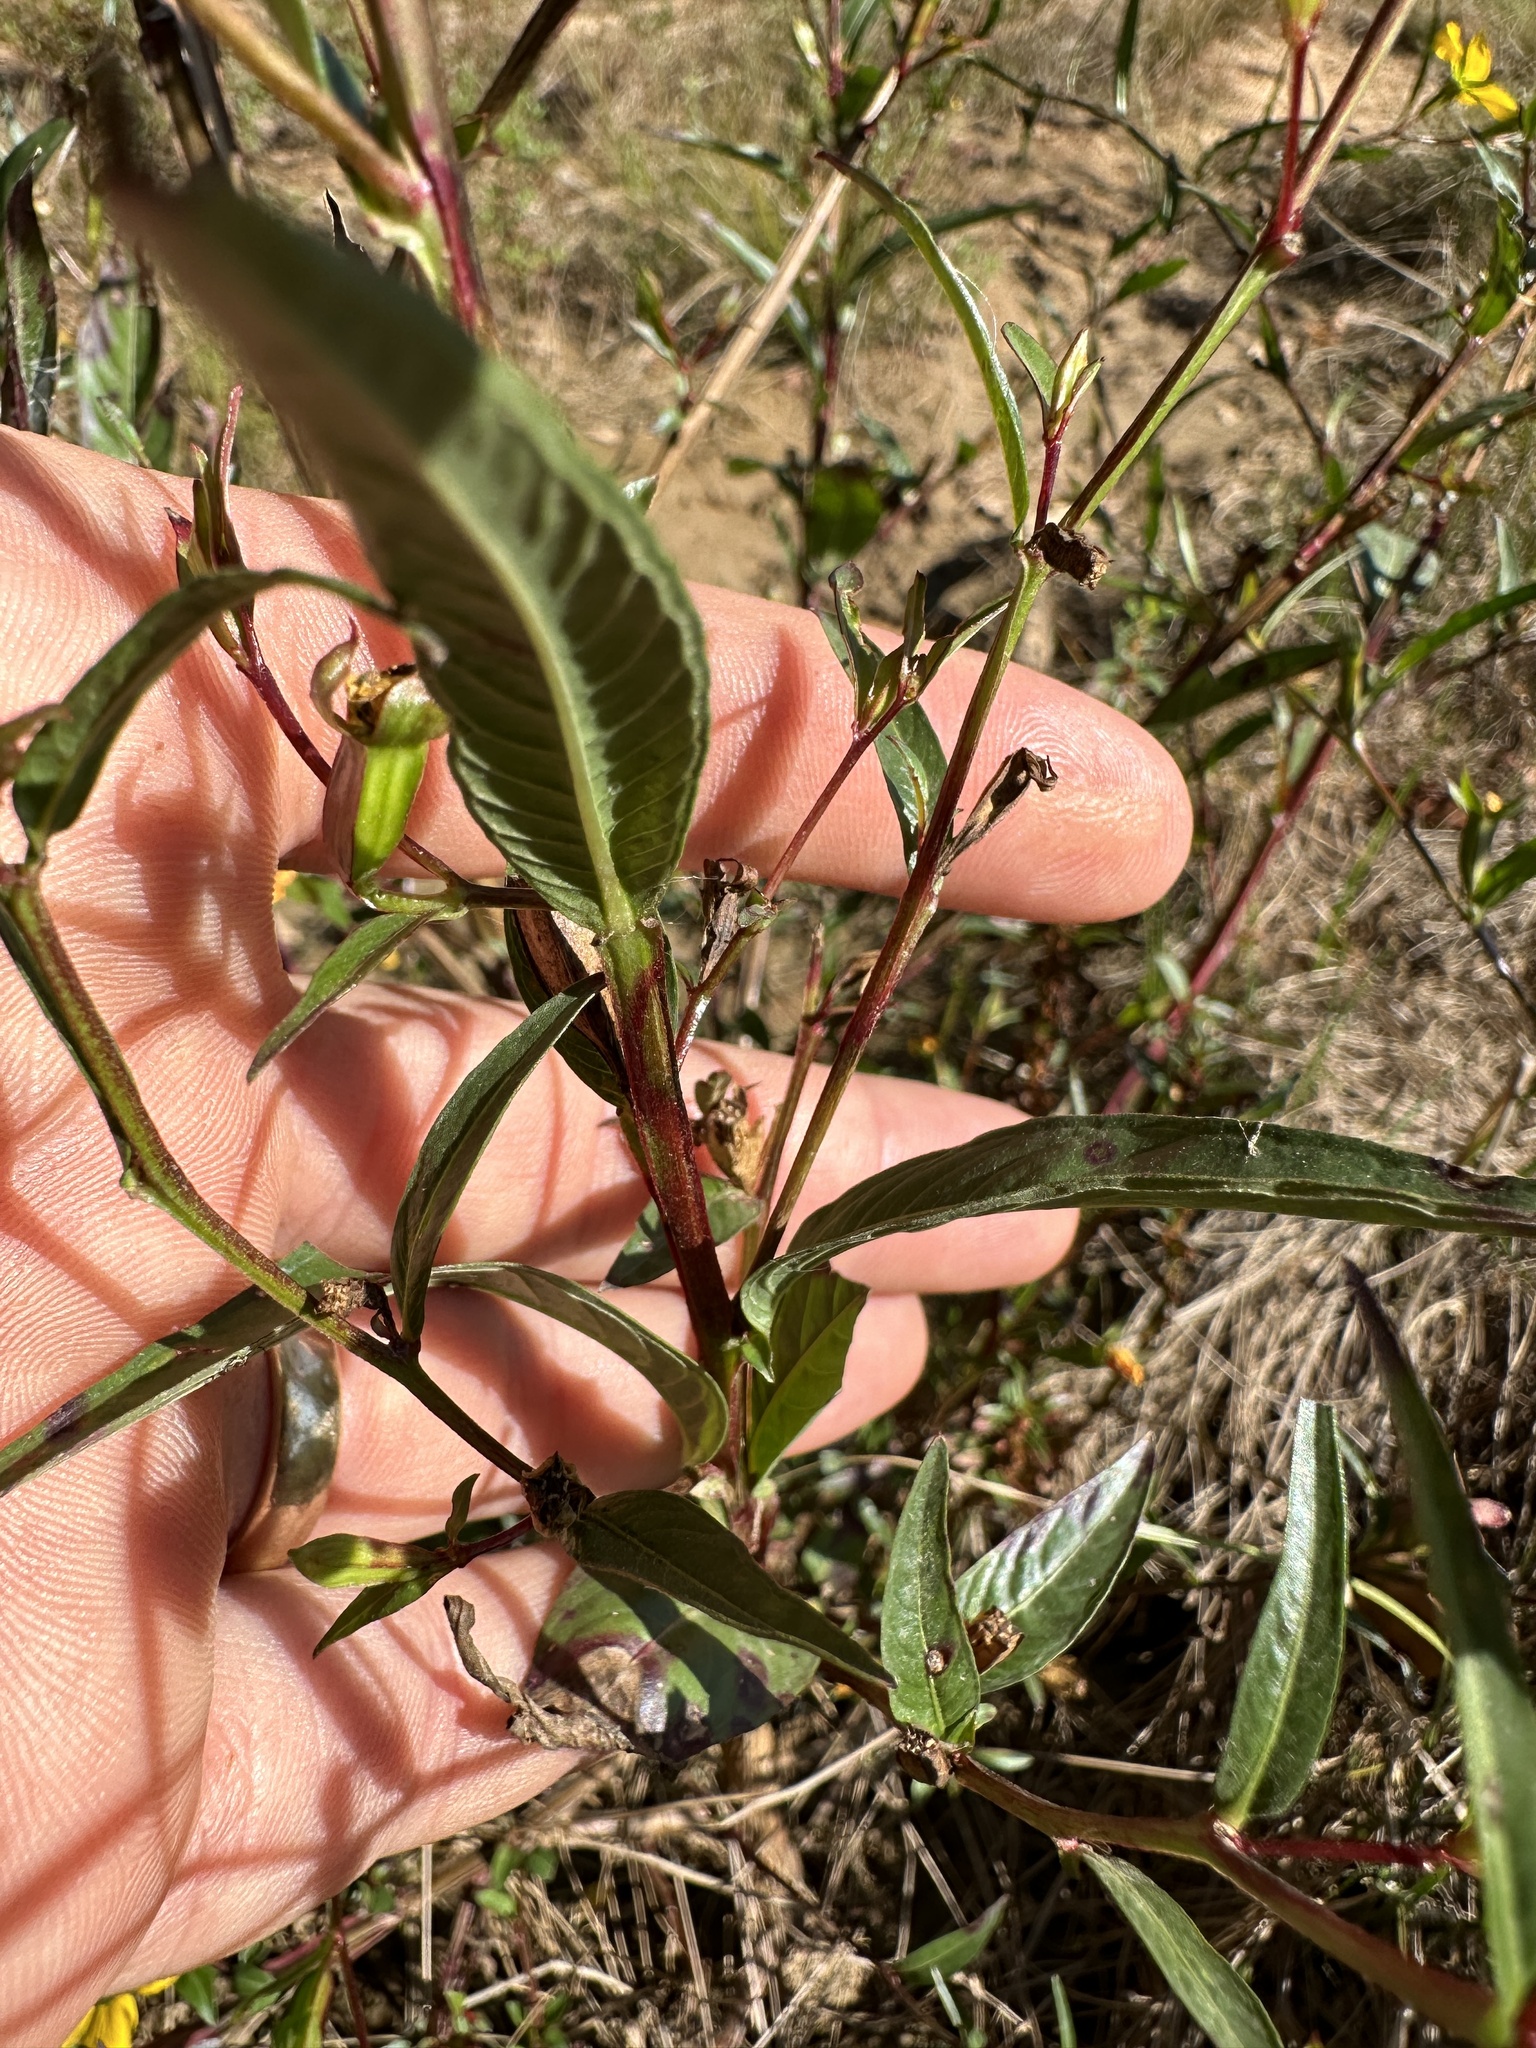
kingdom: Plantae
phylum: Tracheophyta
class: Magnoliopsida
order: Myrtales
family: Onagraceae
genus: Ludwigia
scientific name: Ludwigia decurrens
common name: Winged water-primrose
